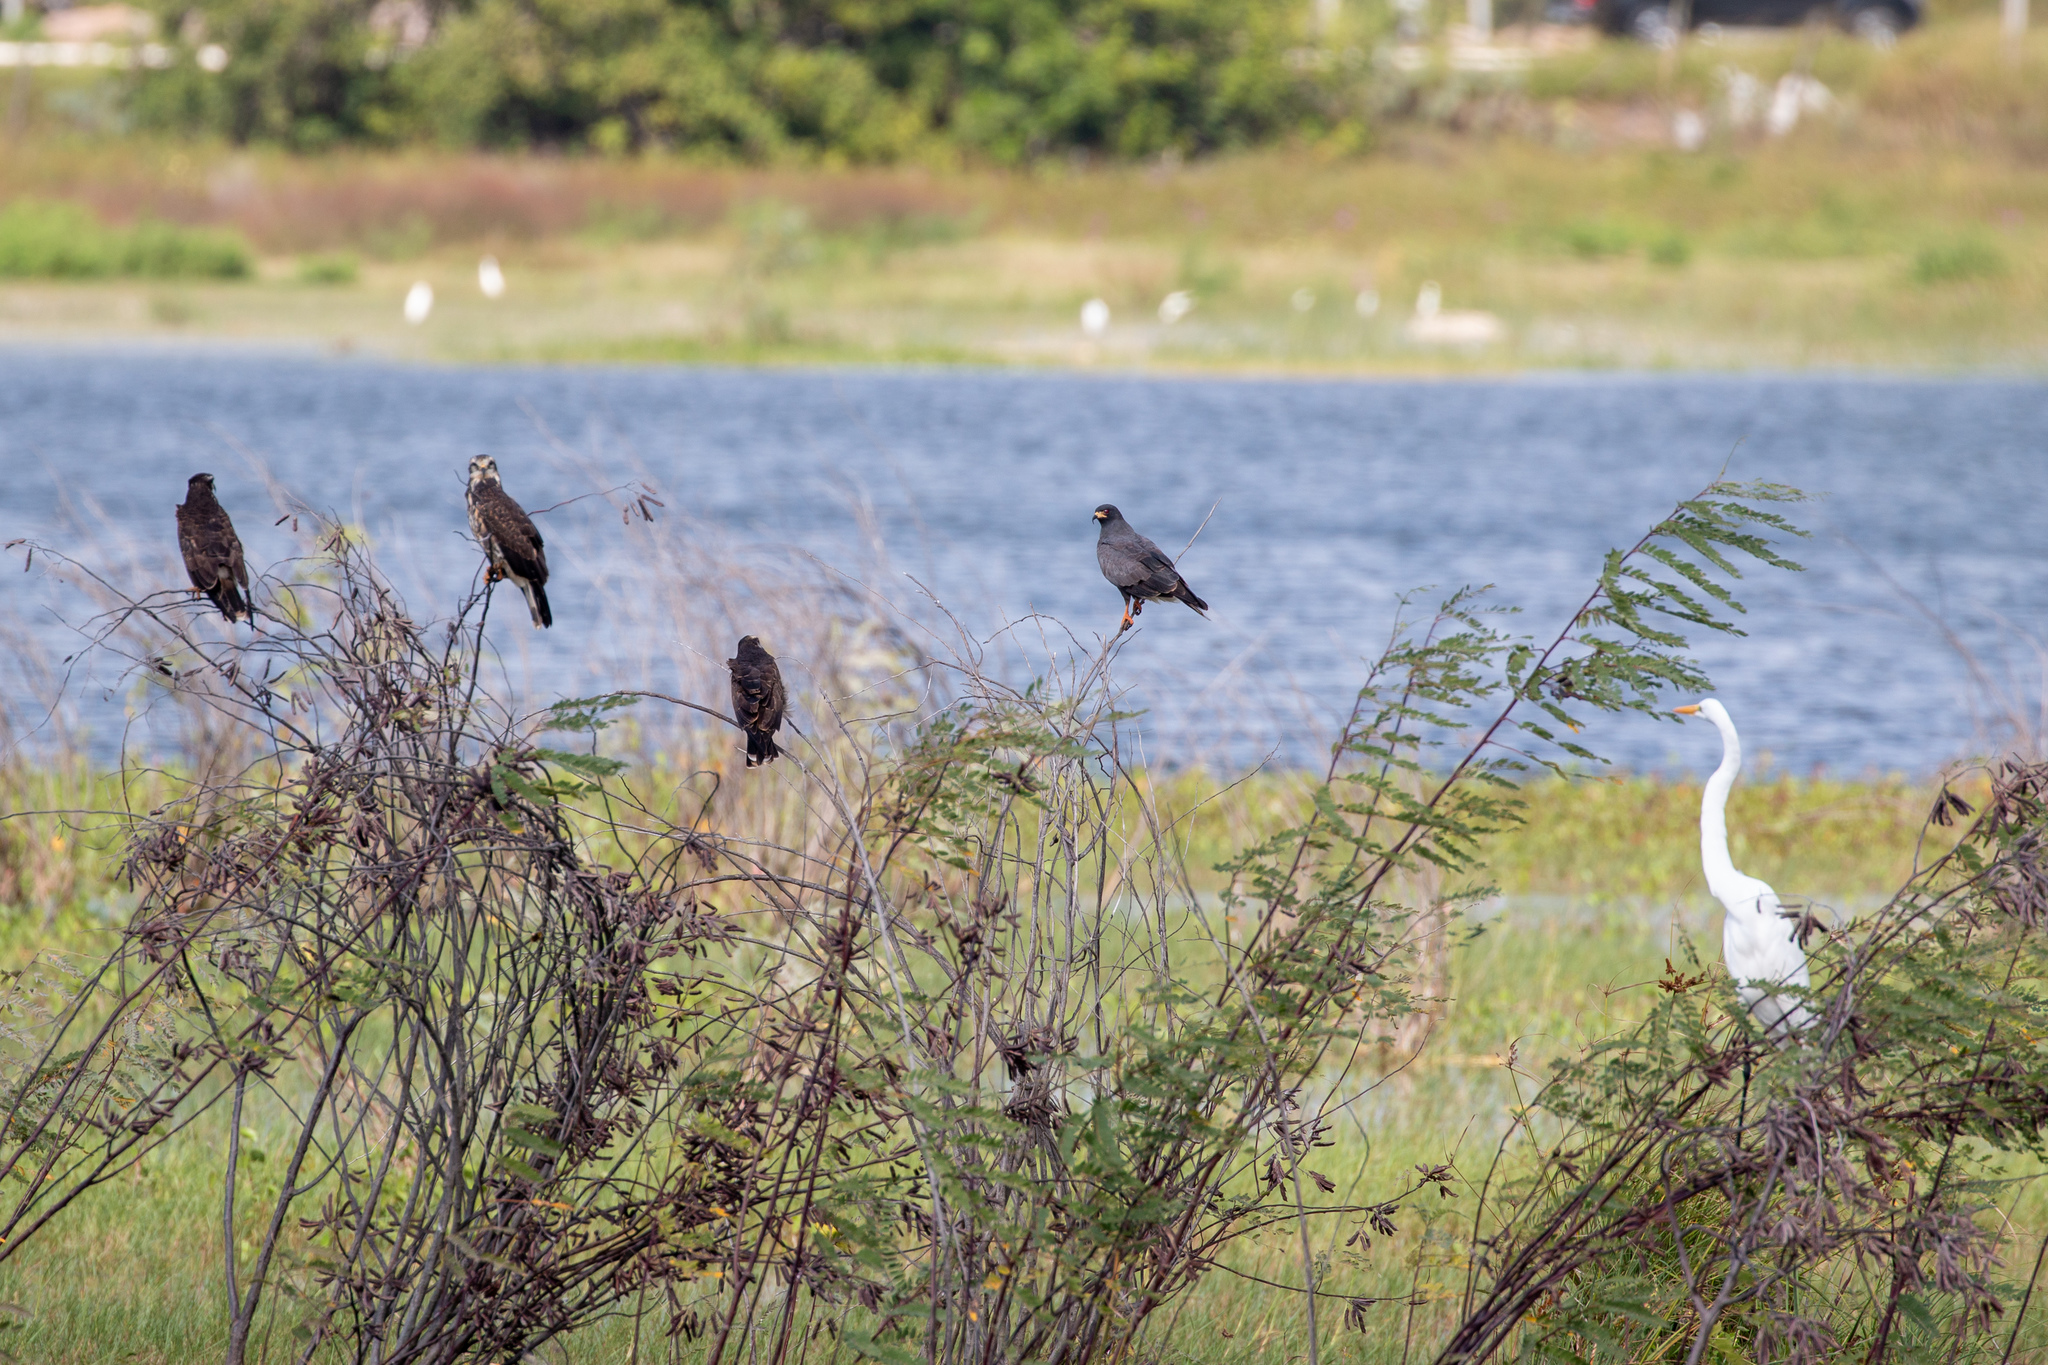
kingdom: Animalia
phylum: Chordata
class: Aves
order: Accipitriformes
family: Accipitridae
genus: Rostrhamus
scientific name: Rostrhamus sociabilis
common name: Snail kite
